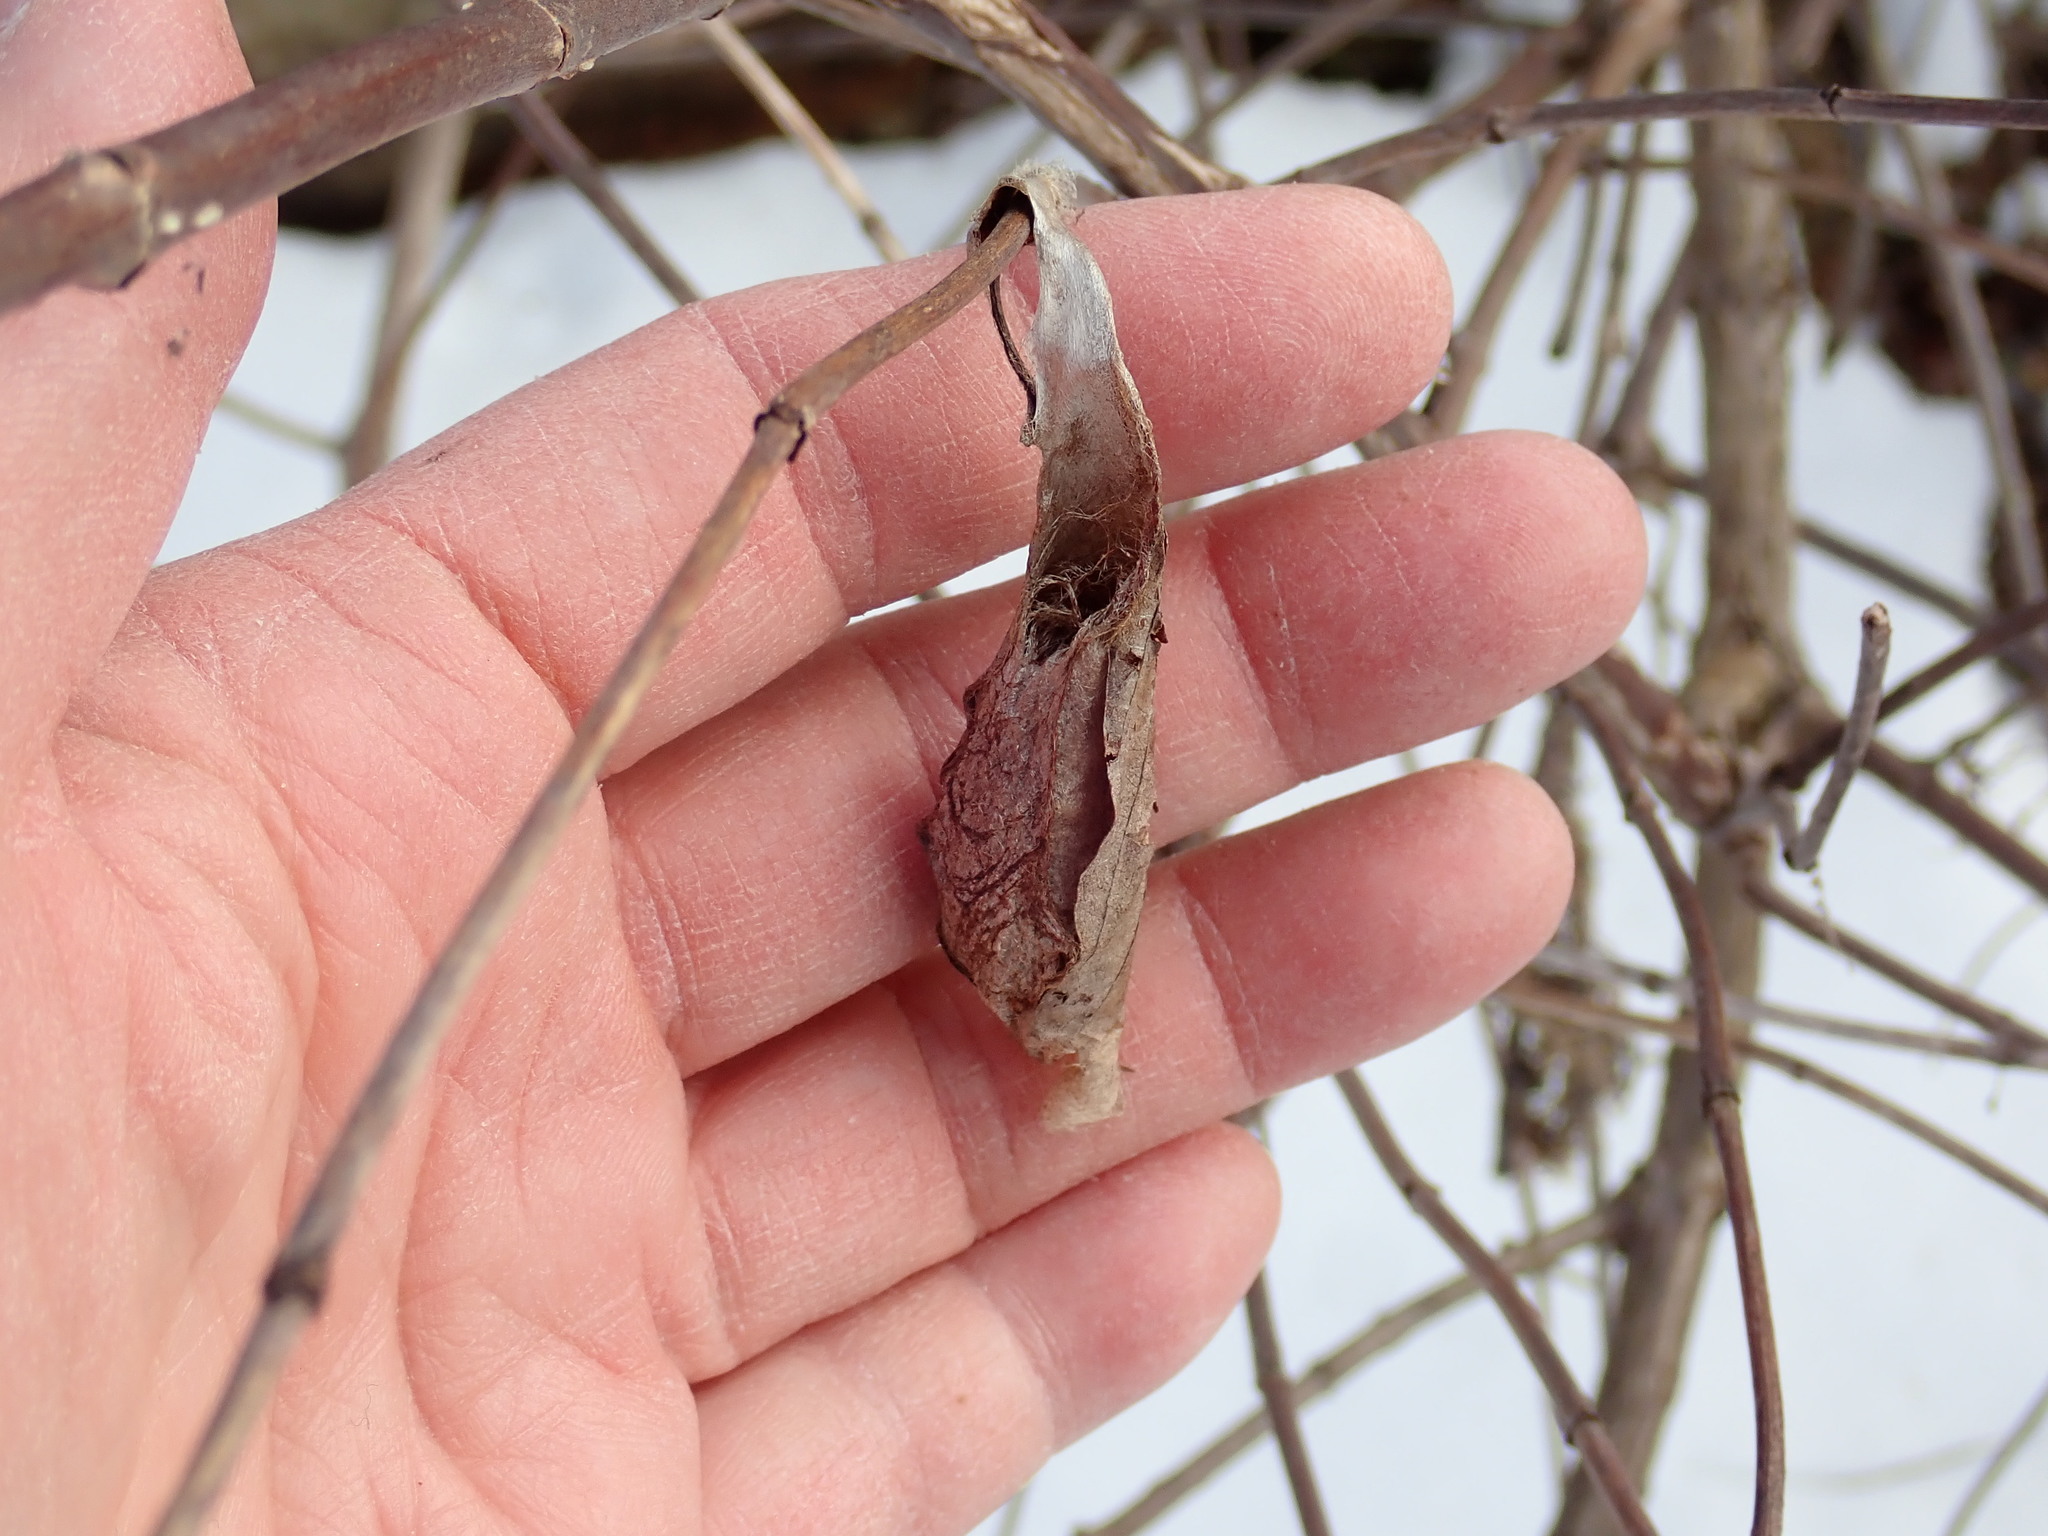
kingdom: Animalia
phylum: Arthropoda
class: Insecta
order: Lepidoptera
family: Saturniidae
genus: Callosamia
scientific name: Callosamia promethea
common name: Promethea silkmoth
